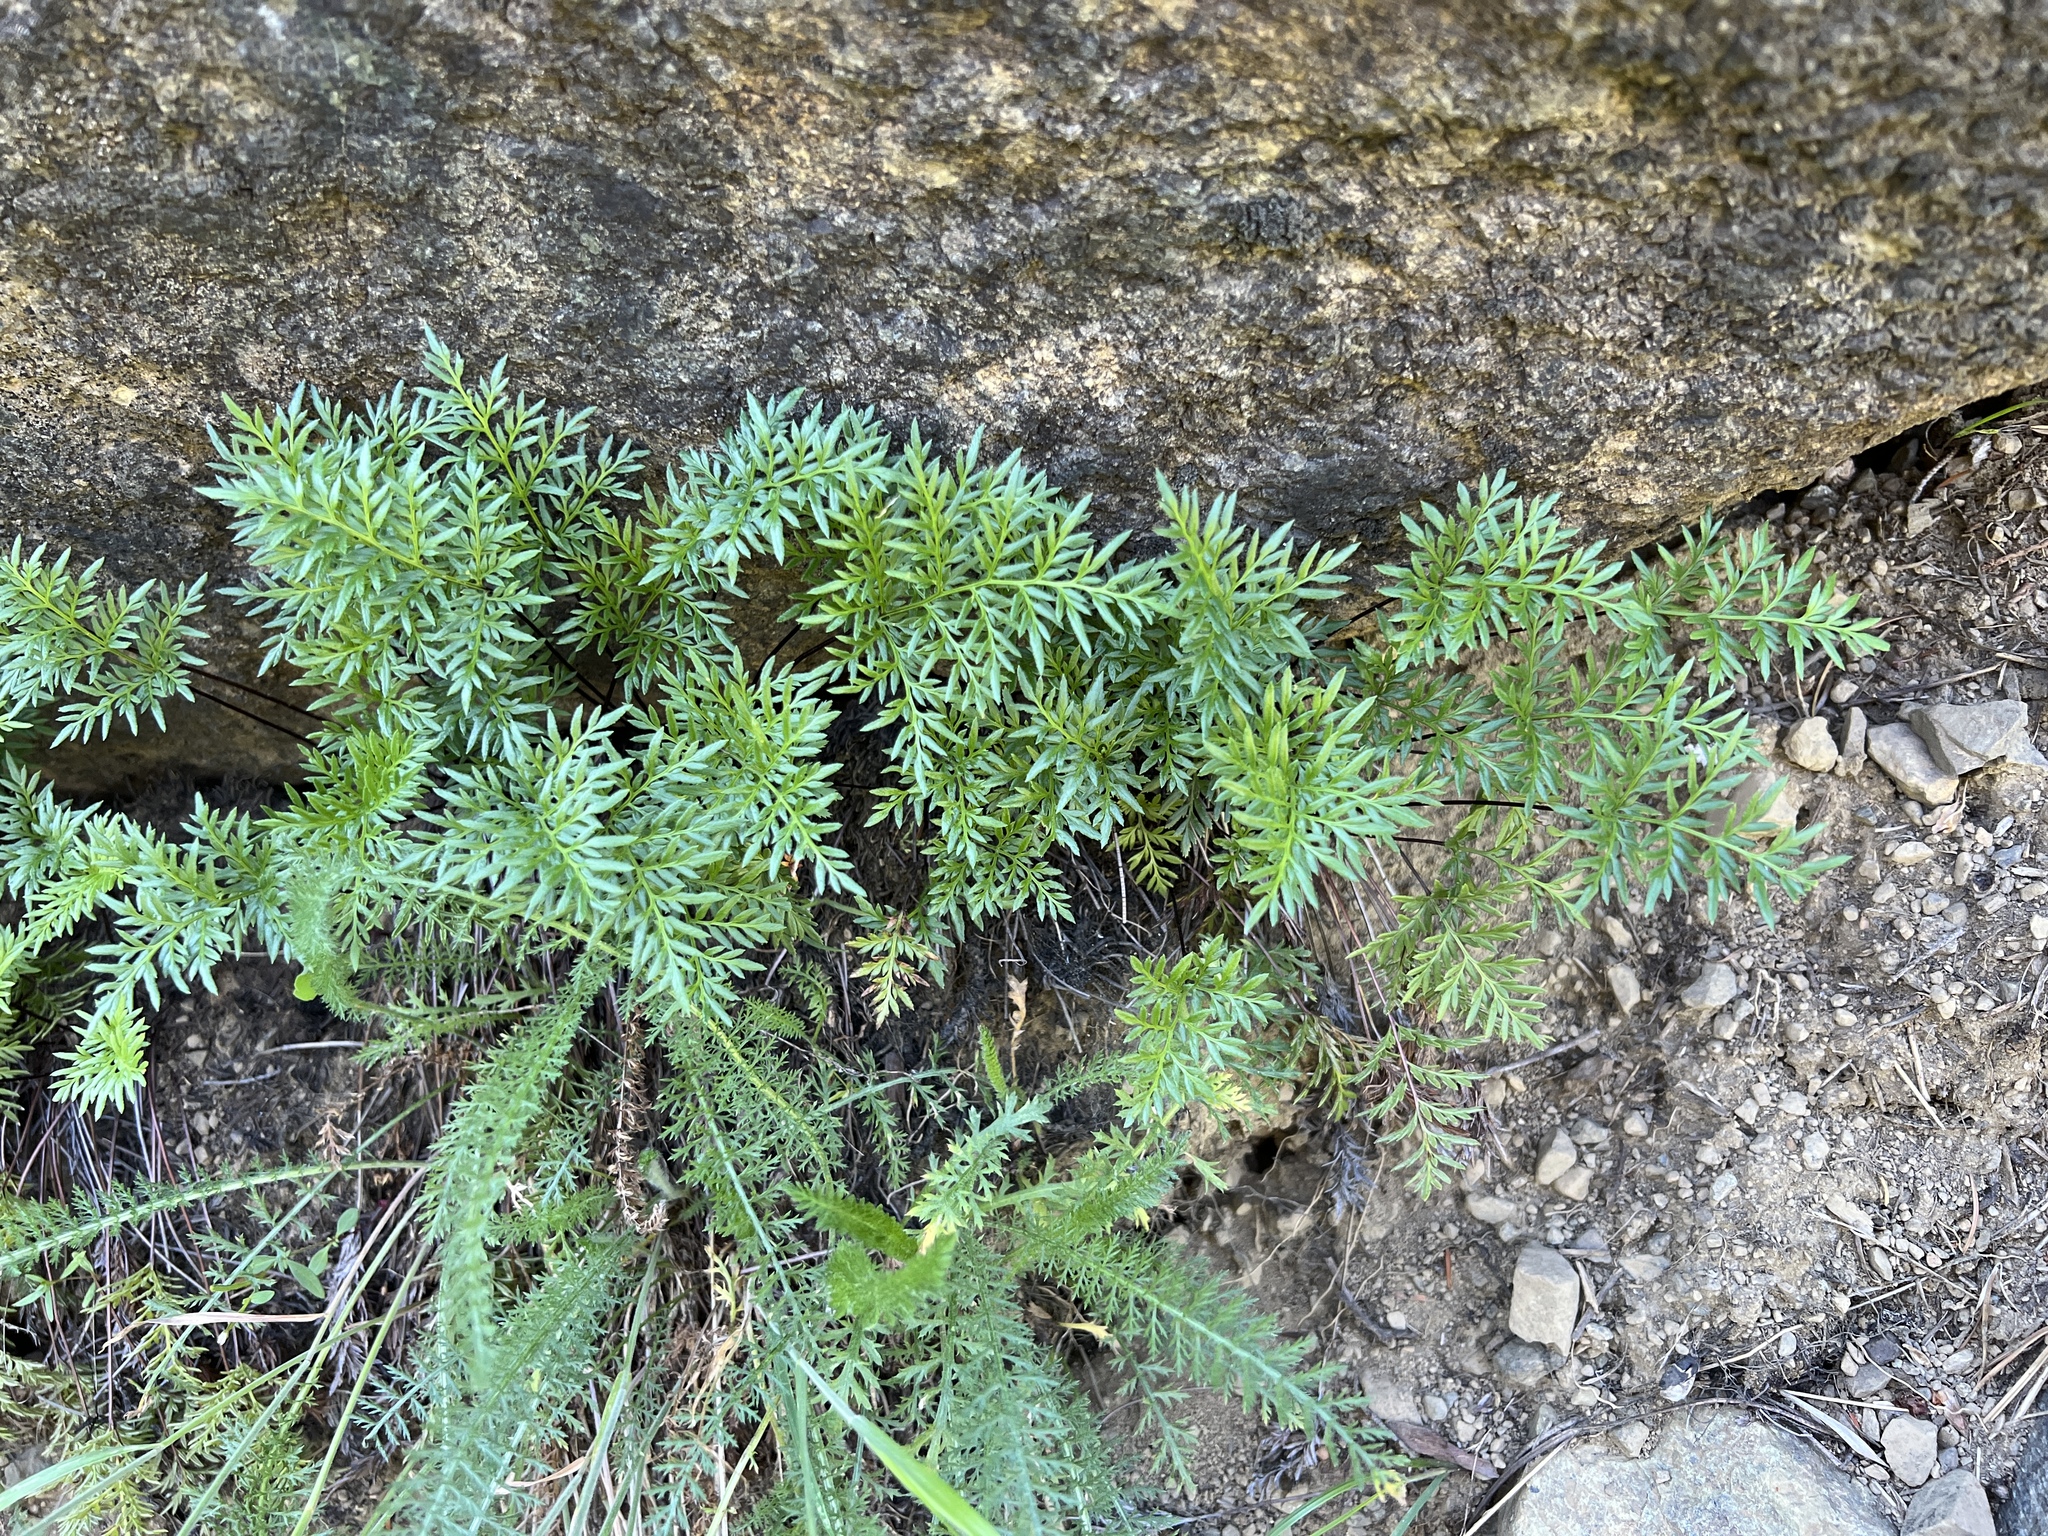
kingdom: Plantae
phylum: Tracheophyta
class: Polypodiopsida
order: Polypodiales
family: Pteridaceae
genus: Aspidotis
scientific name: Aspidotis densa
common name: Indian's dream
